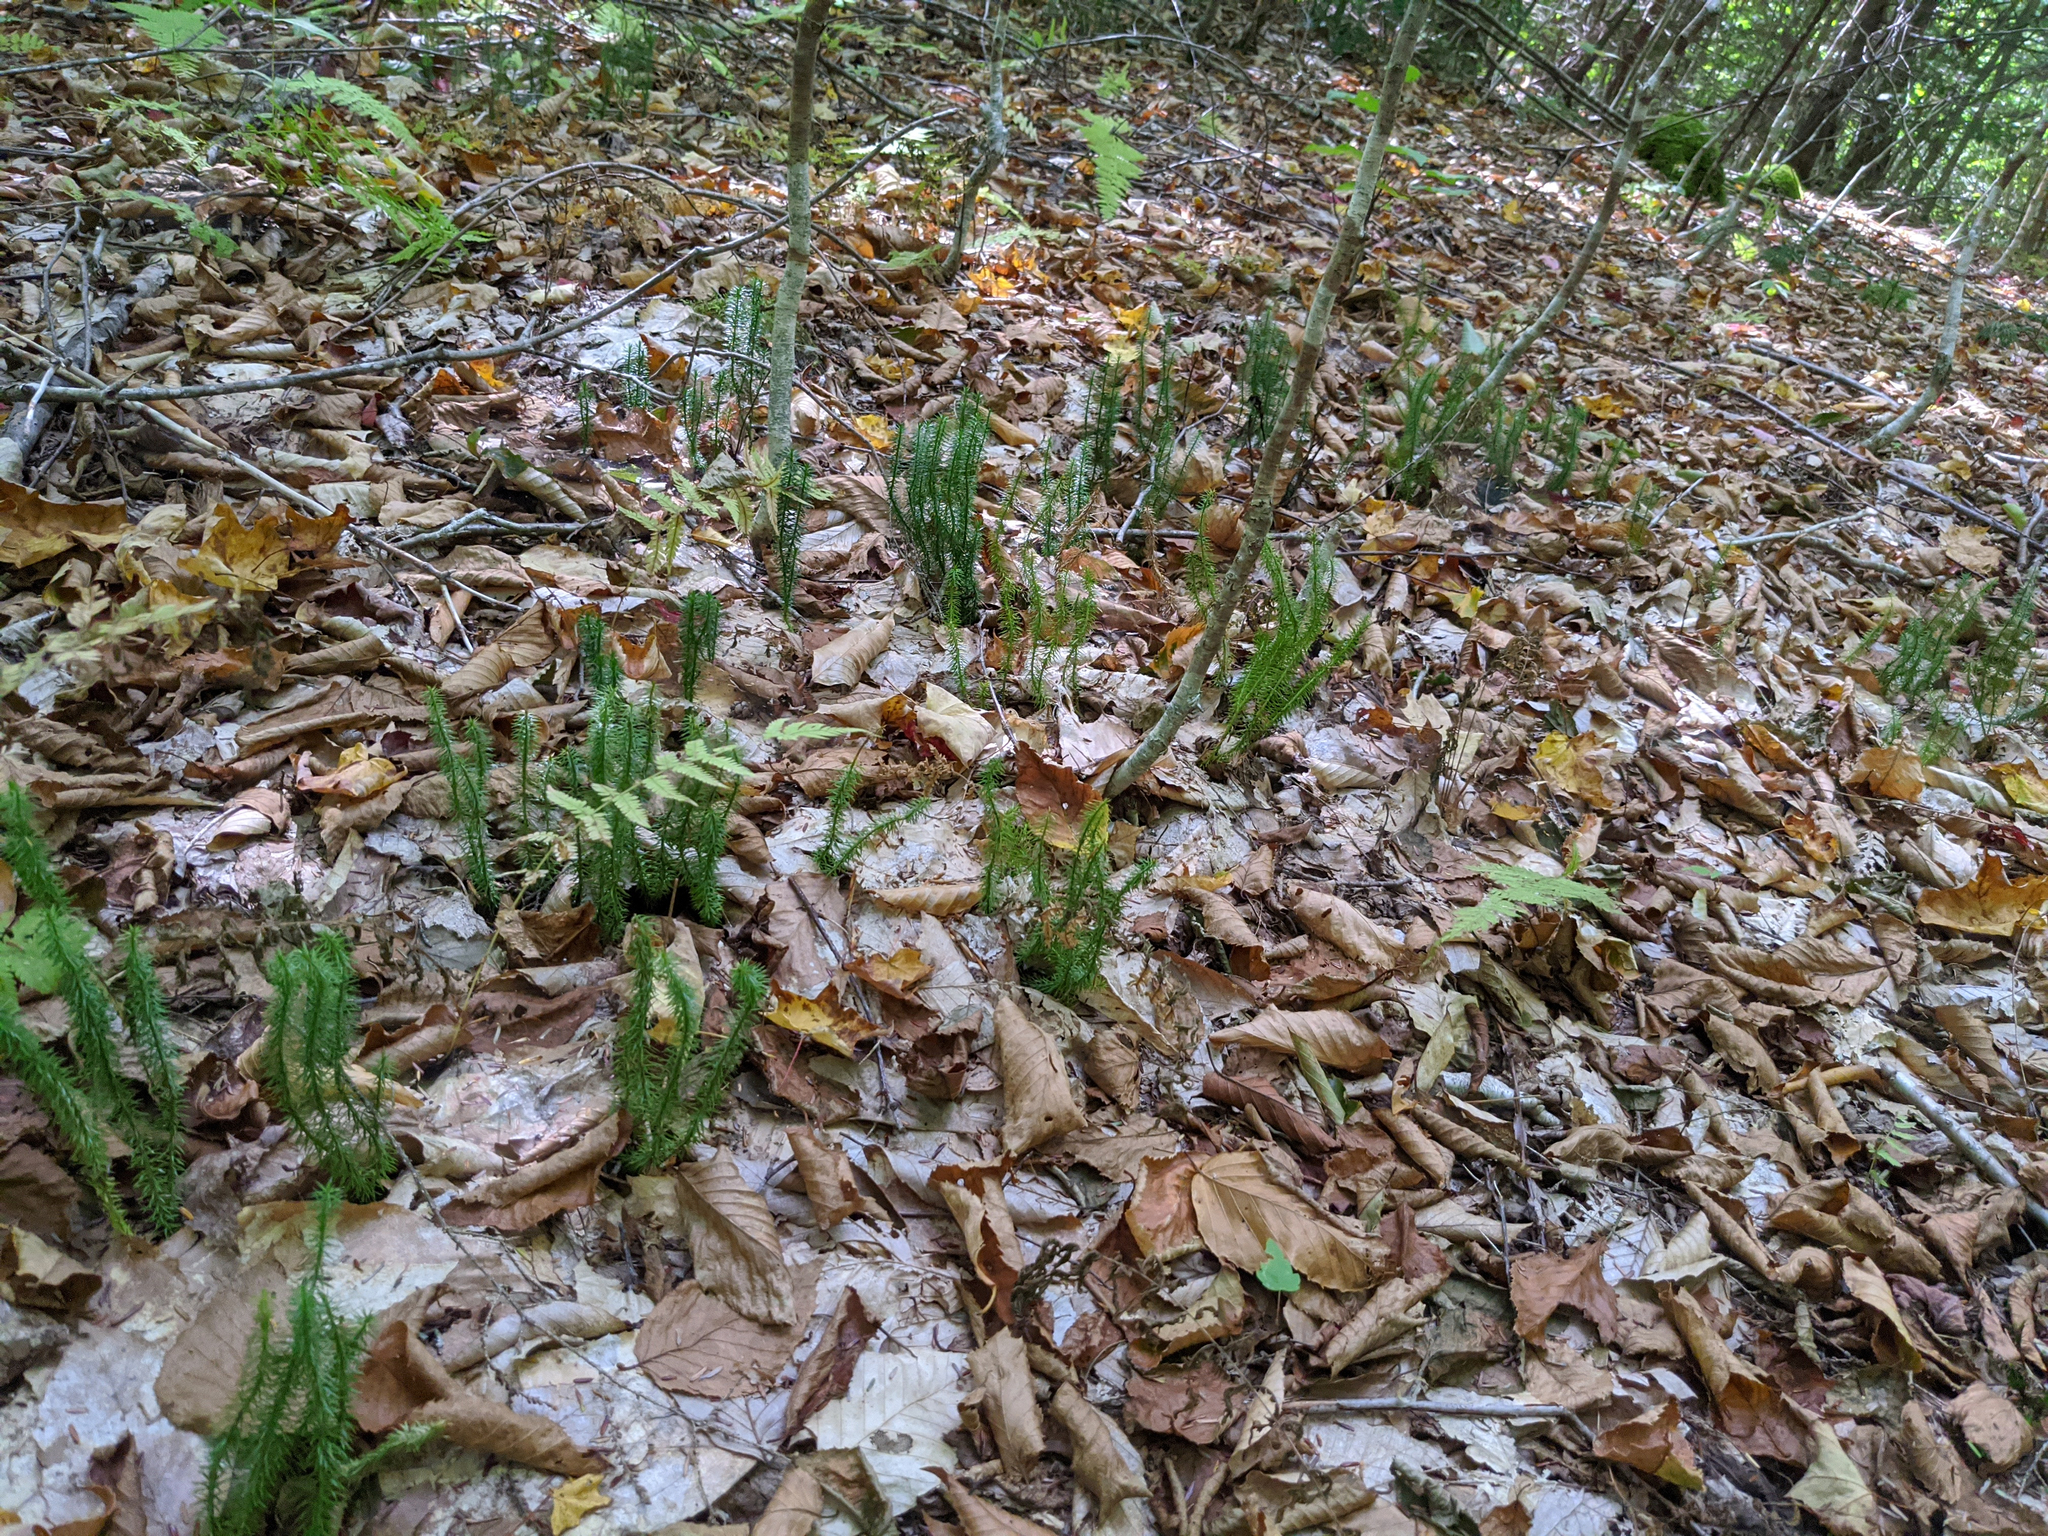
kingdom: Plantae
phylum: Tracheophyta
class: Lycopodiopsida
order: Lycopodiales
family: Lycopodiaceae
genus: Spinulum
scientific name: Spinulum annotinum
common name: Interrupted club-moss
